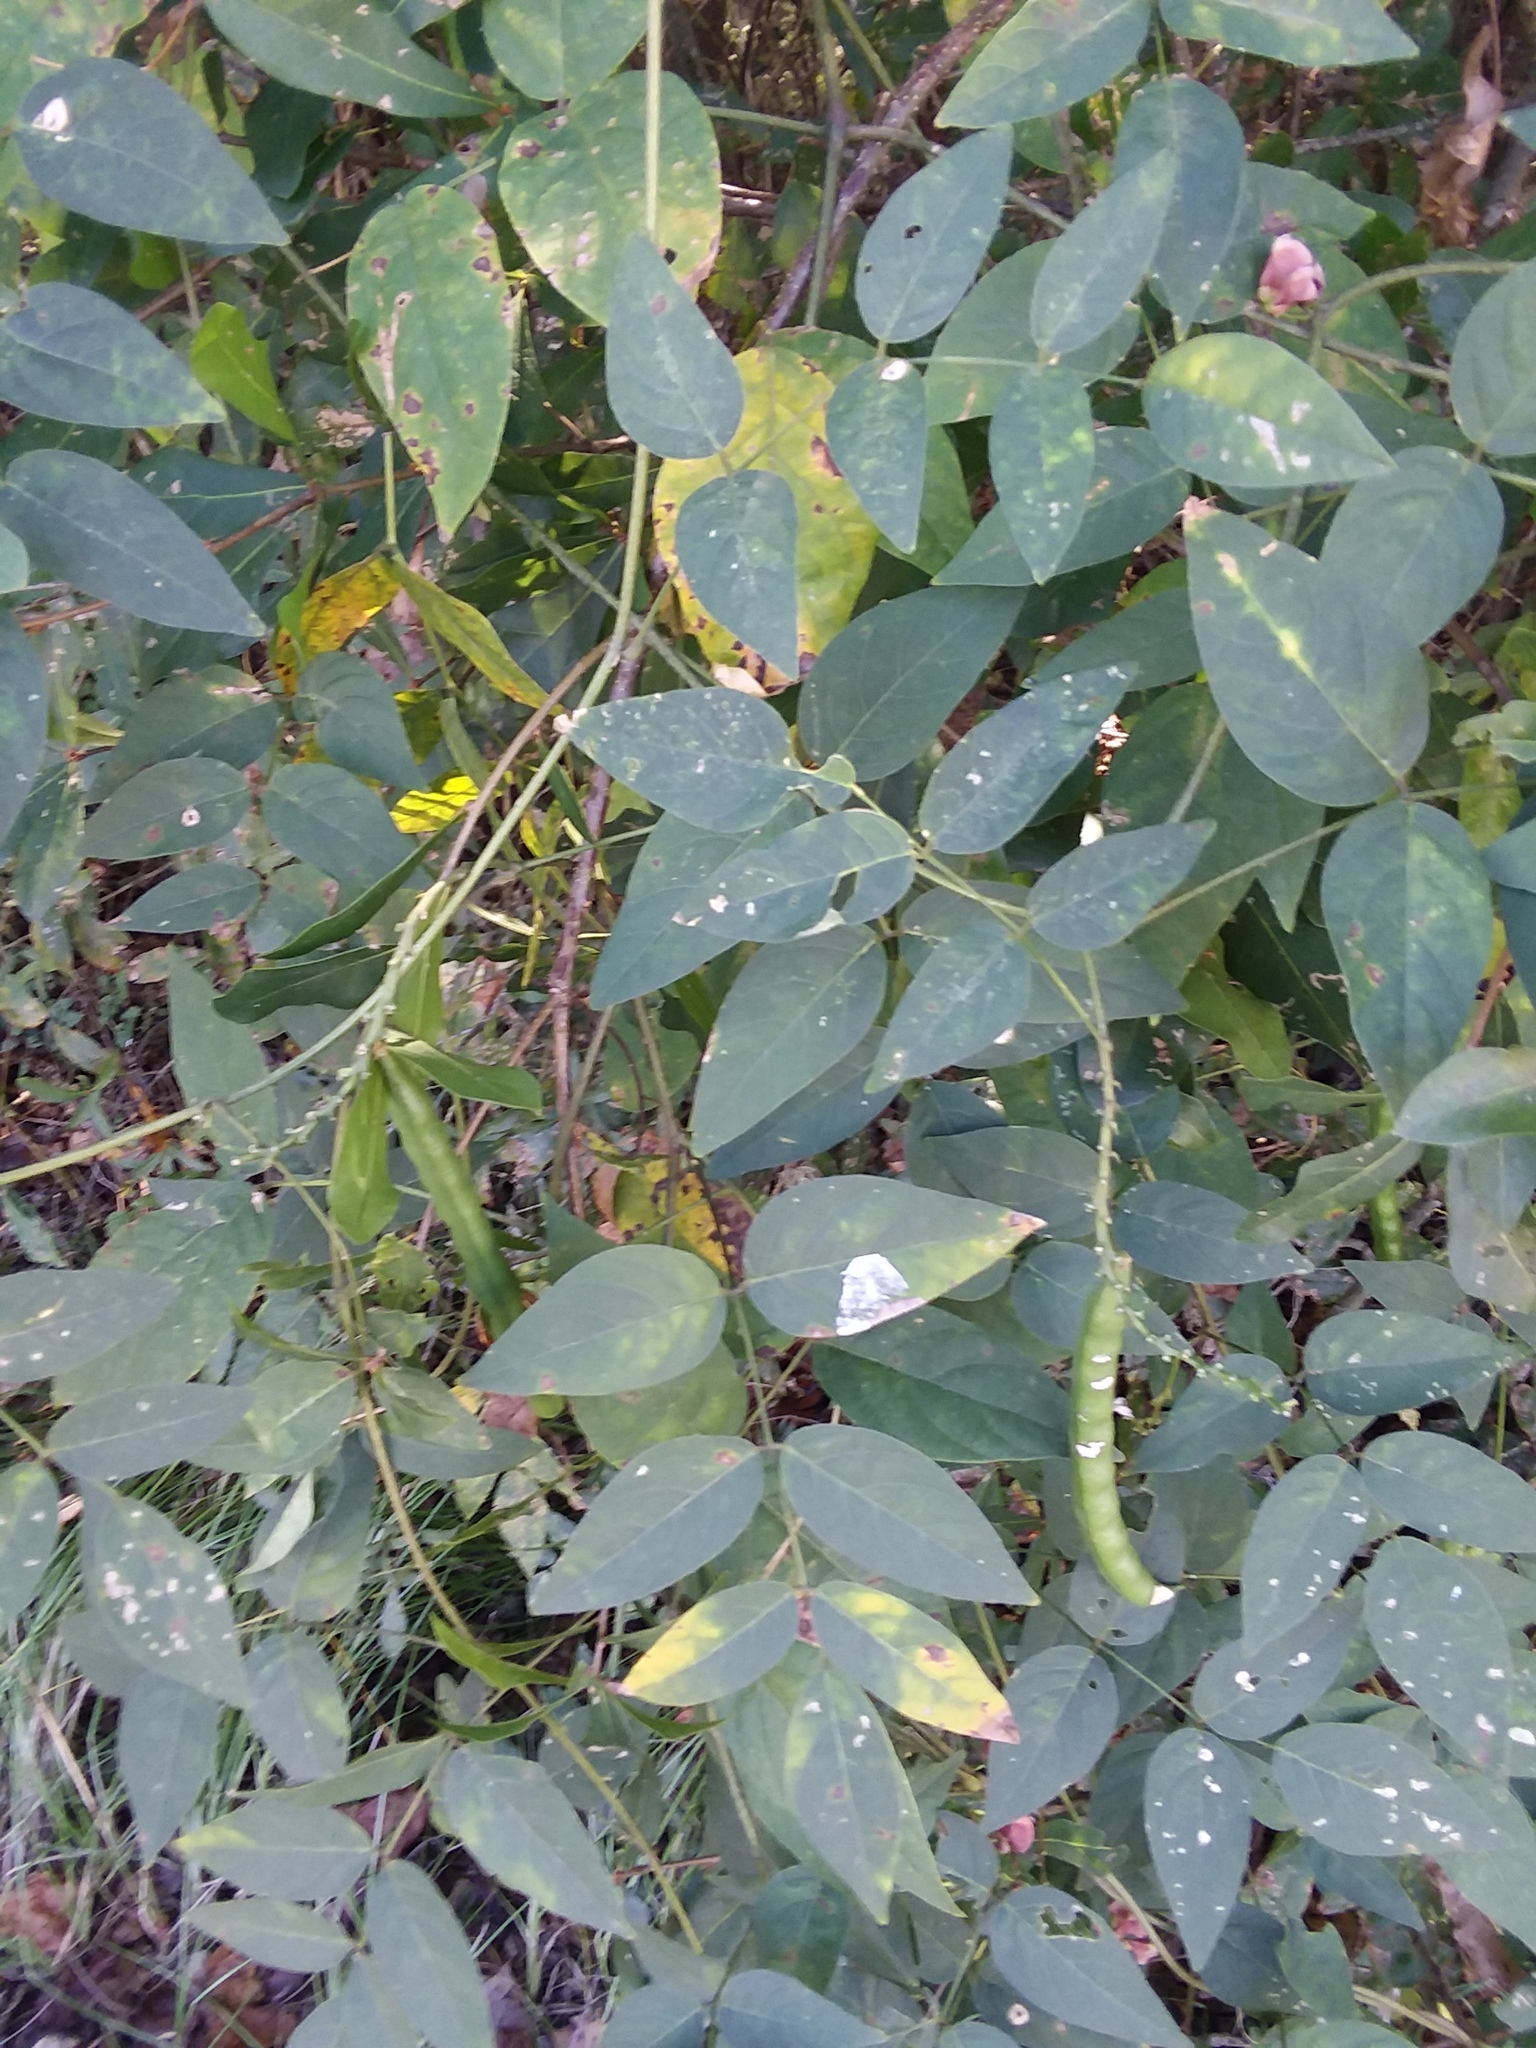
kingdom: Plantae
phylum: Tracheophyta
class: Magnoliopsida
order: Fabales
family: Fabaceae
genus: Apios
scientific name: Apios americana
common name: American potato-bean
